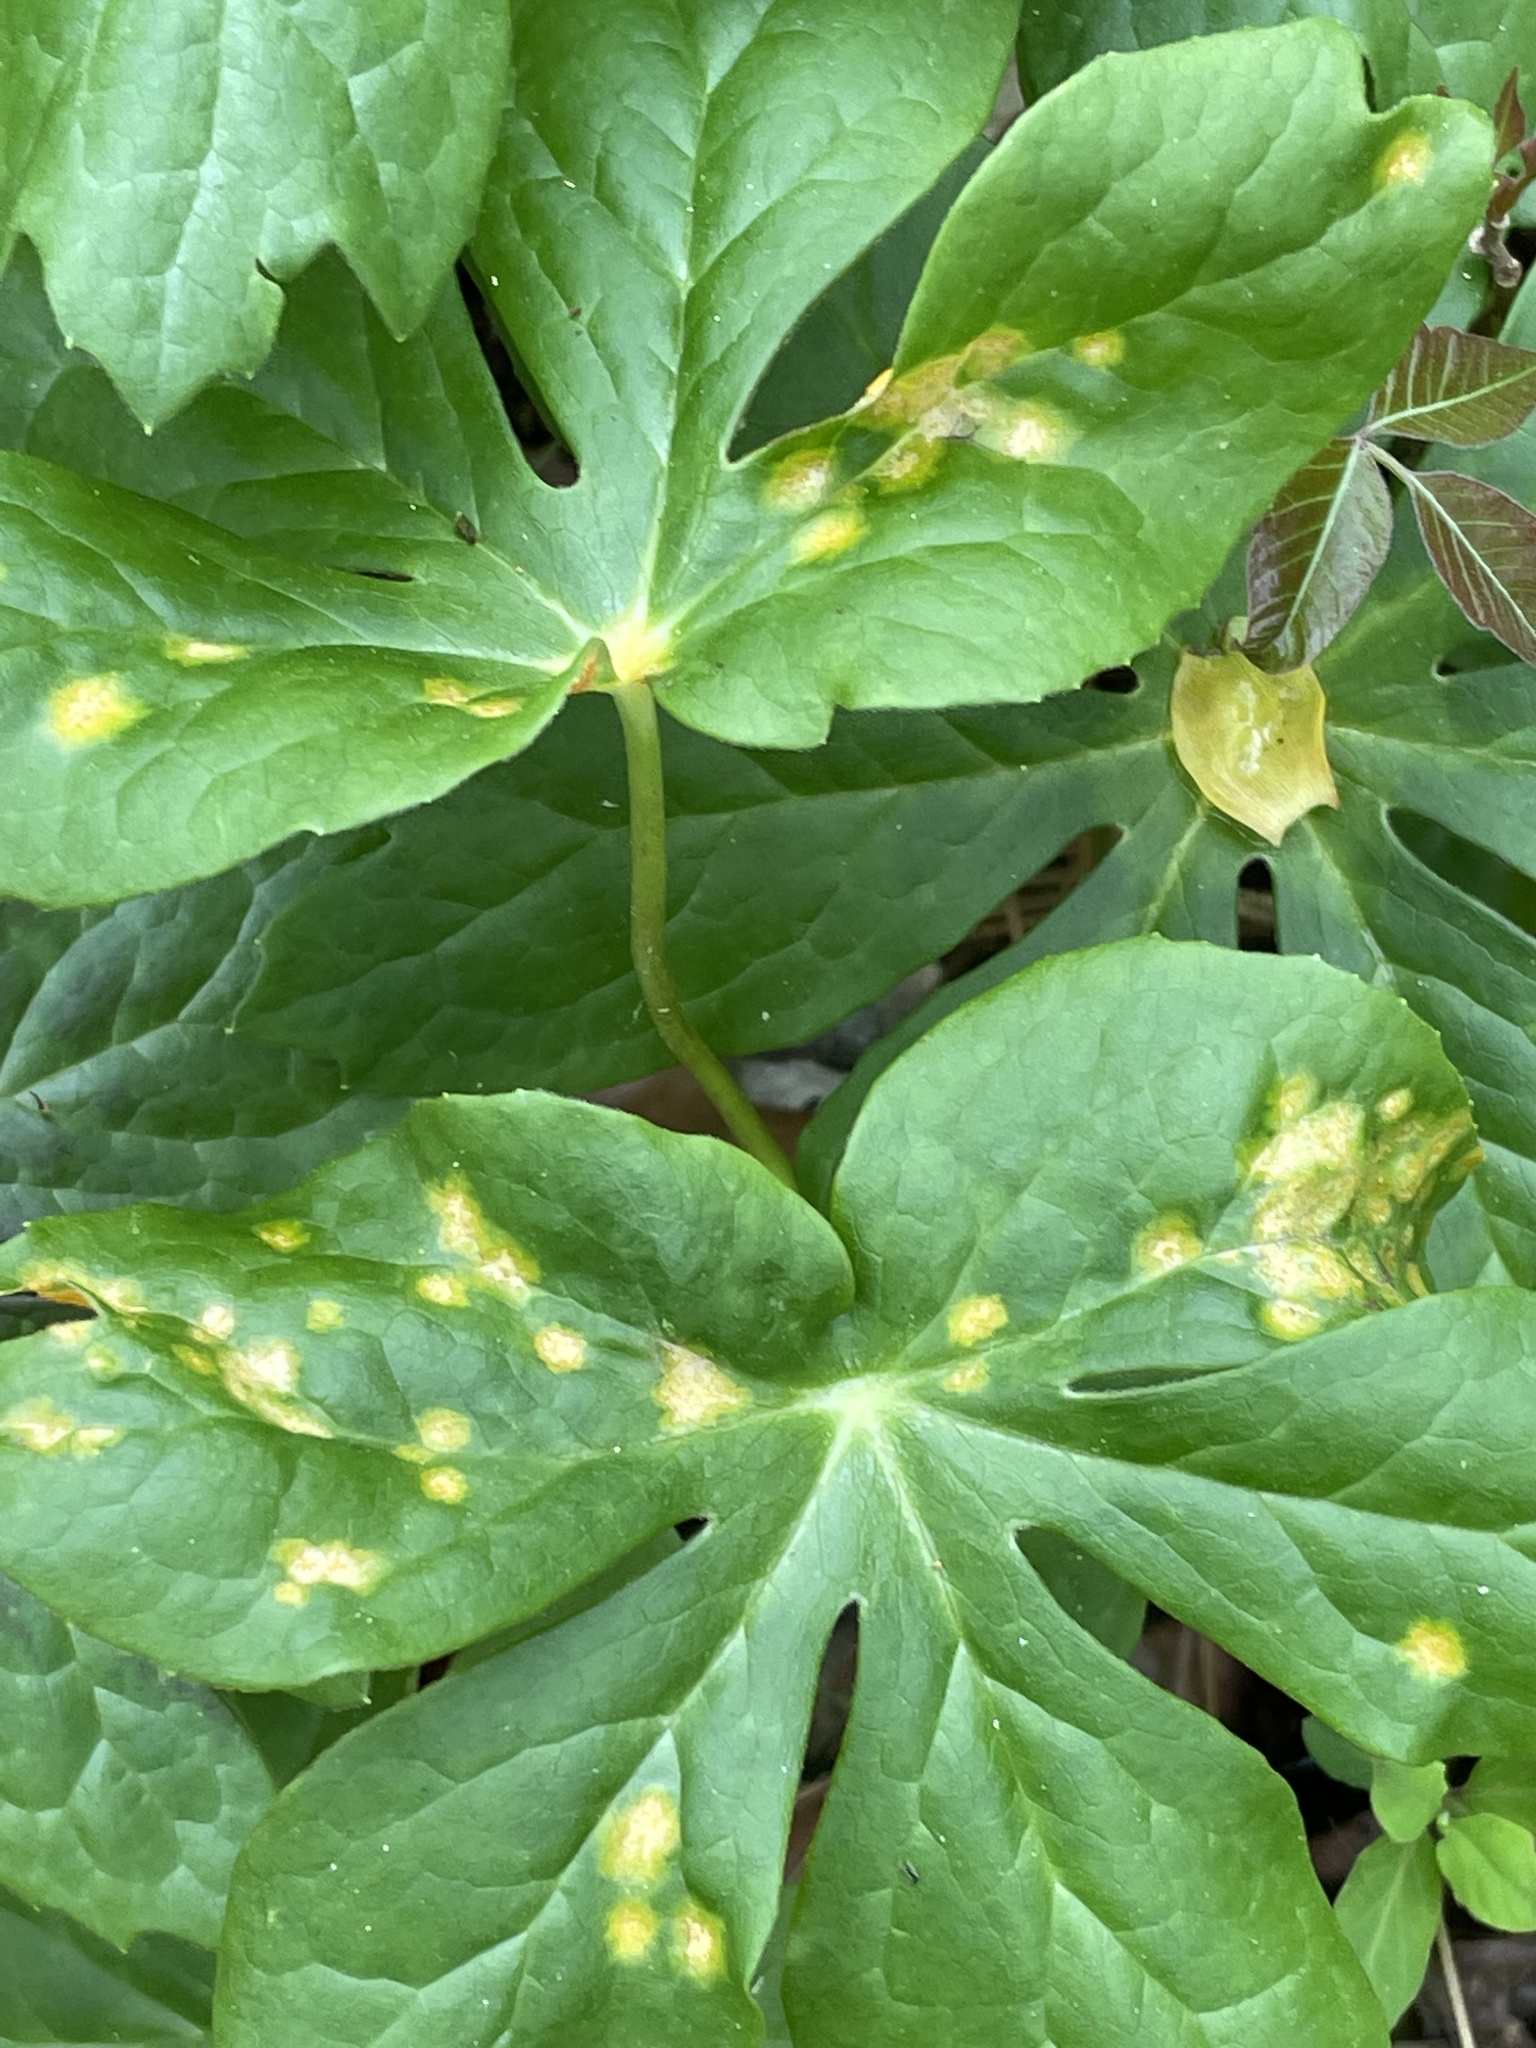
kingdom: Fungi
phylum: Basidiomycota
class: Pucciniomycetes
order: Pucciniales
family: Pucciniaceae
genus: Puccinia
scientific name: Puccinia podophylli
